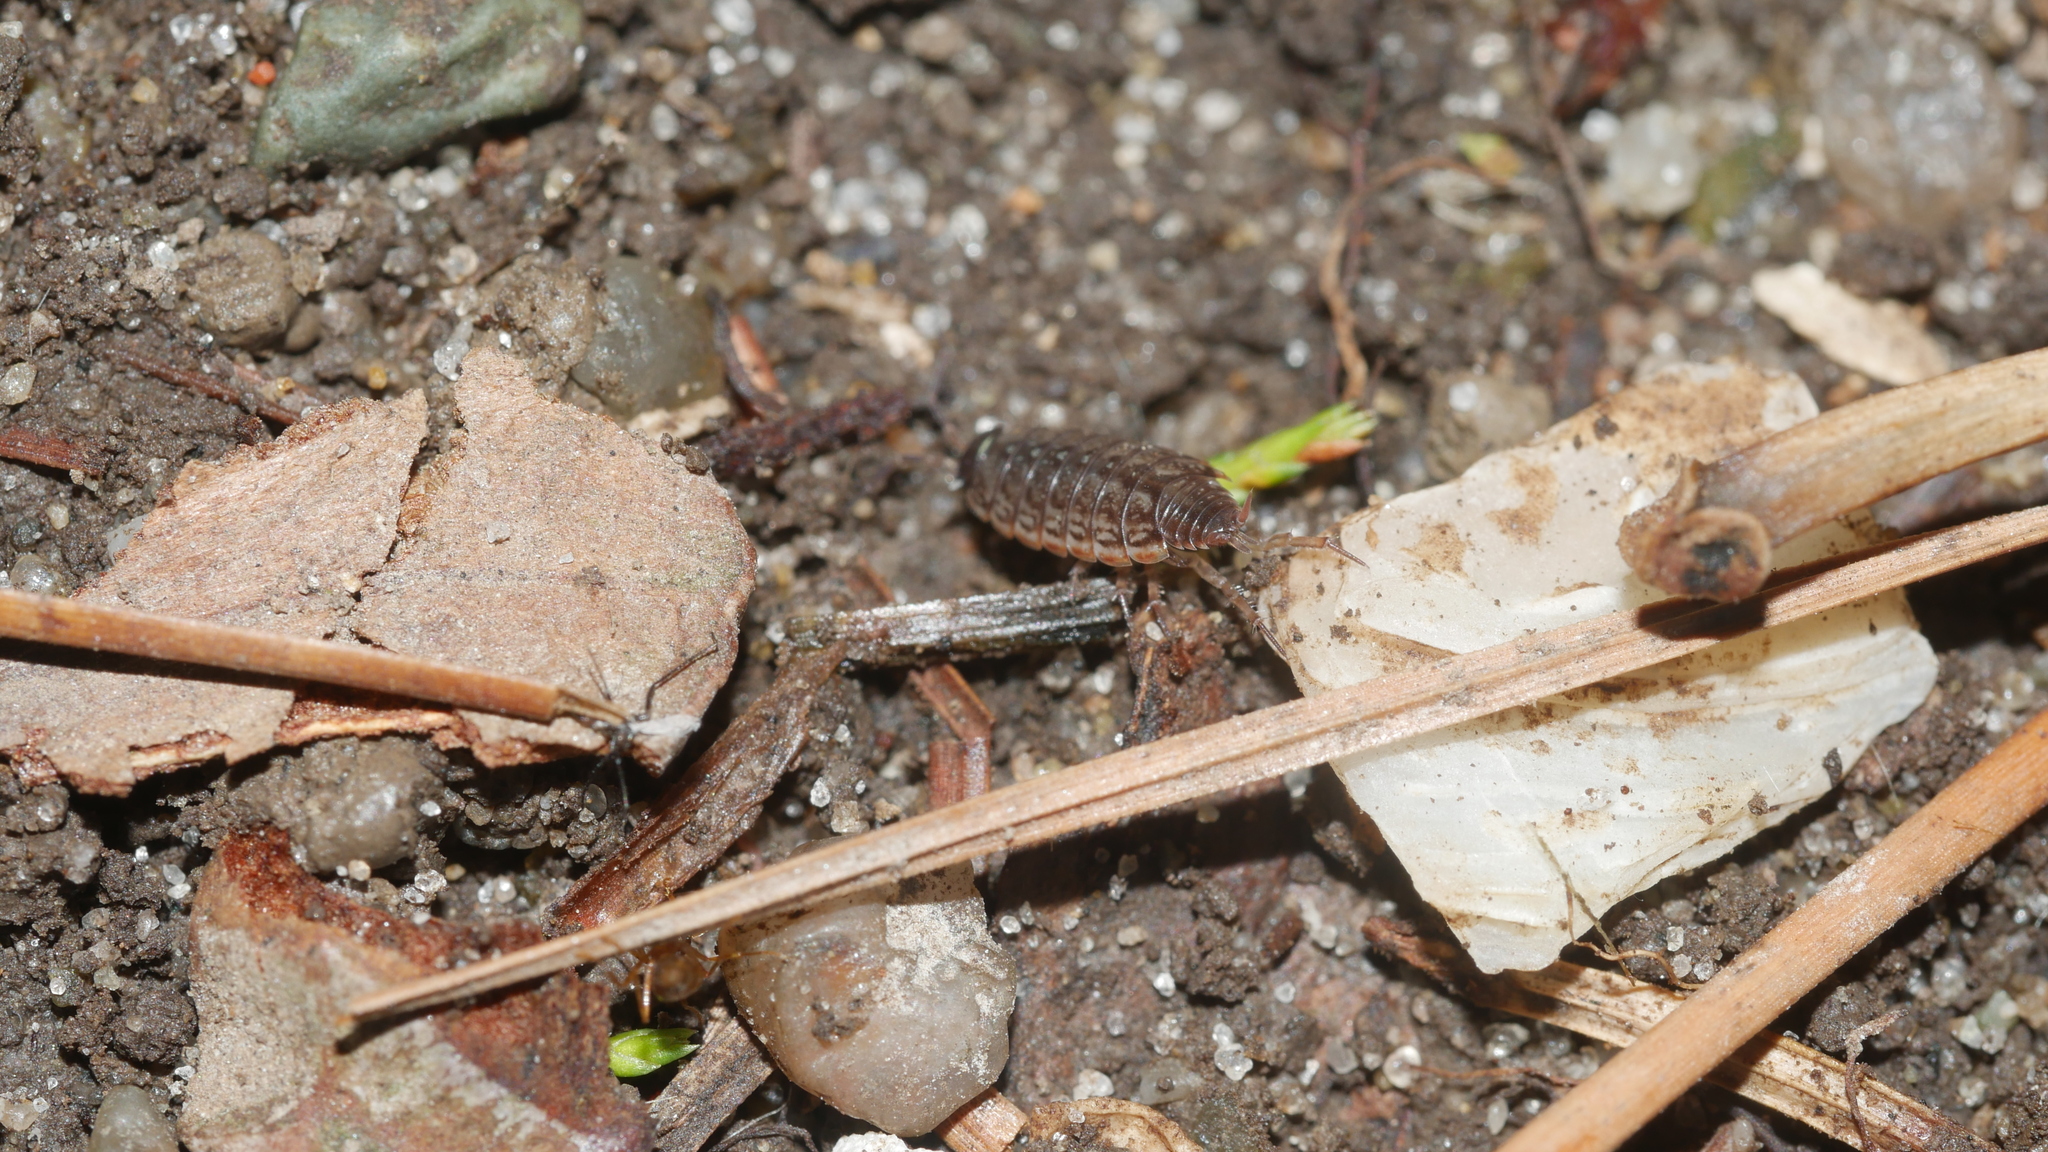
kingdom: Animalia
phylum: Arthropoda
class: Malacostraca
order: Isopoda
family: Philosciidae
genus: Philoscia
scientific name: Philoscia muscorum
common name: Common striped woodlouse
